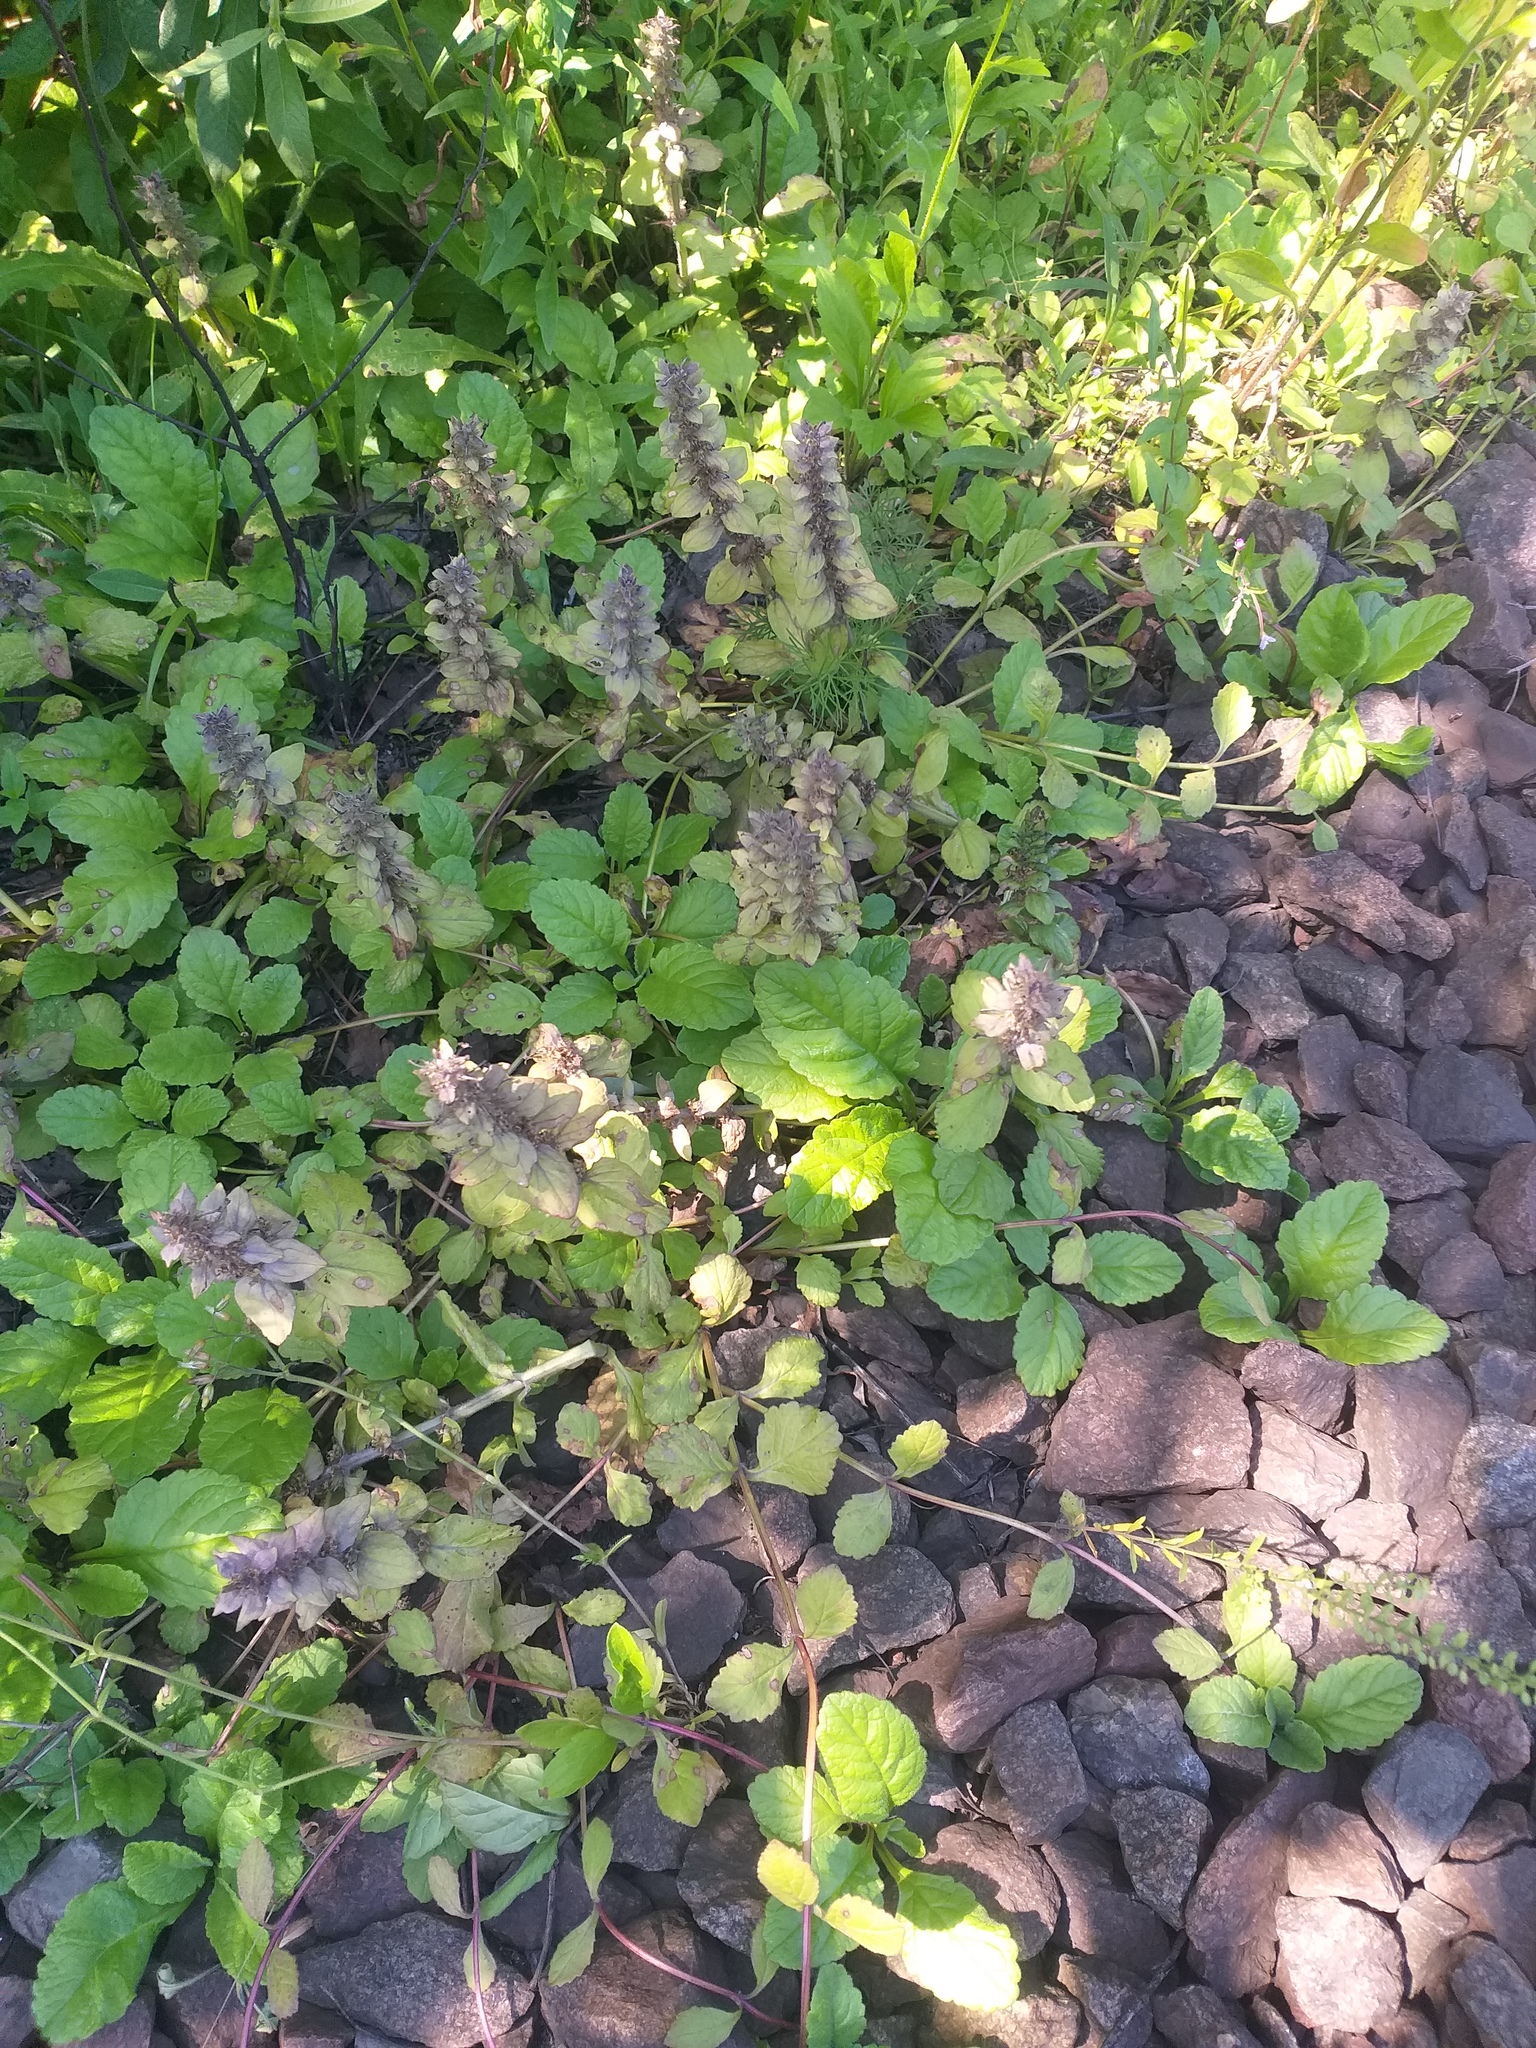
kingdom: Plantae
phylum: Tracheophyta
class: Magnoliopsida
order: Lamiales
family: Lamiaceae
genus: Ajuga
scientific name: Ajuga reptans
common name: Bugle
